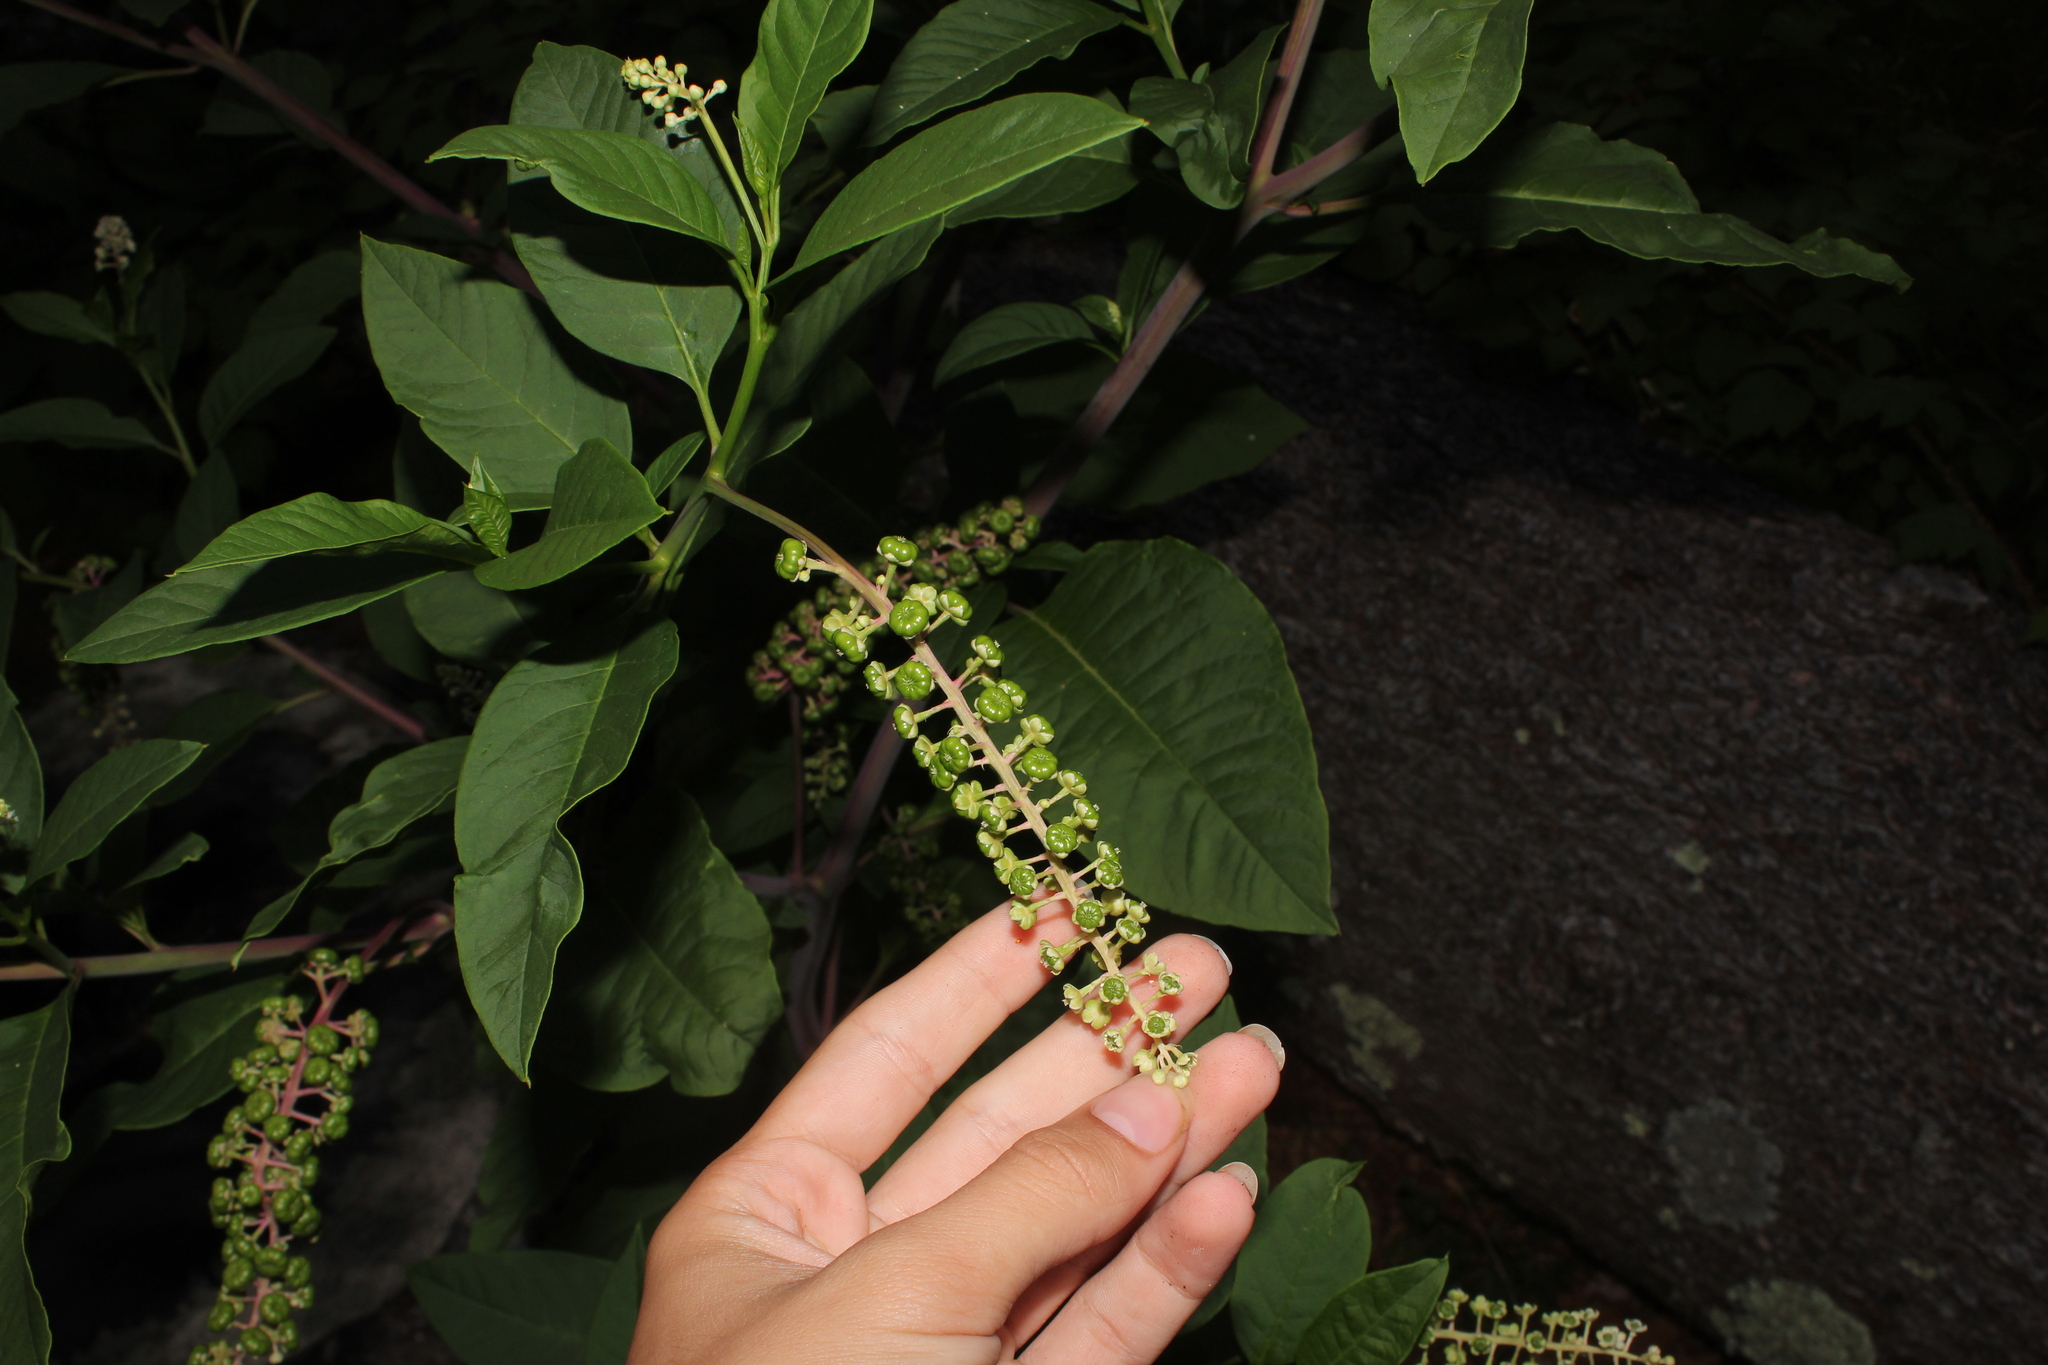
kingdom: Plantae
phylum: Tracheophyta
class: Magnoliopsida
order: Caryophyllales
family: Phytolaccaceae
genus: Phytolacca
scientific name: Phytolacca americana
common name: American pokeweed
